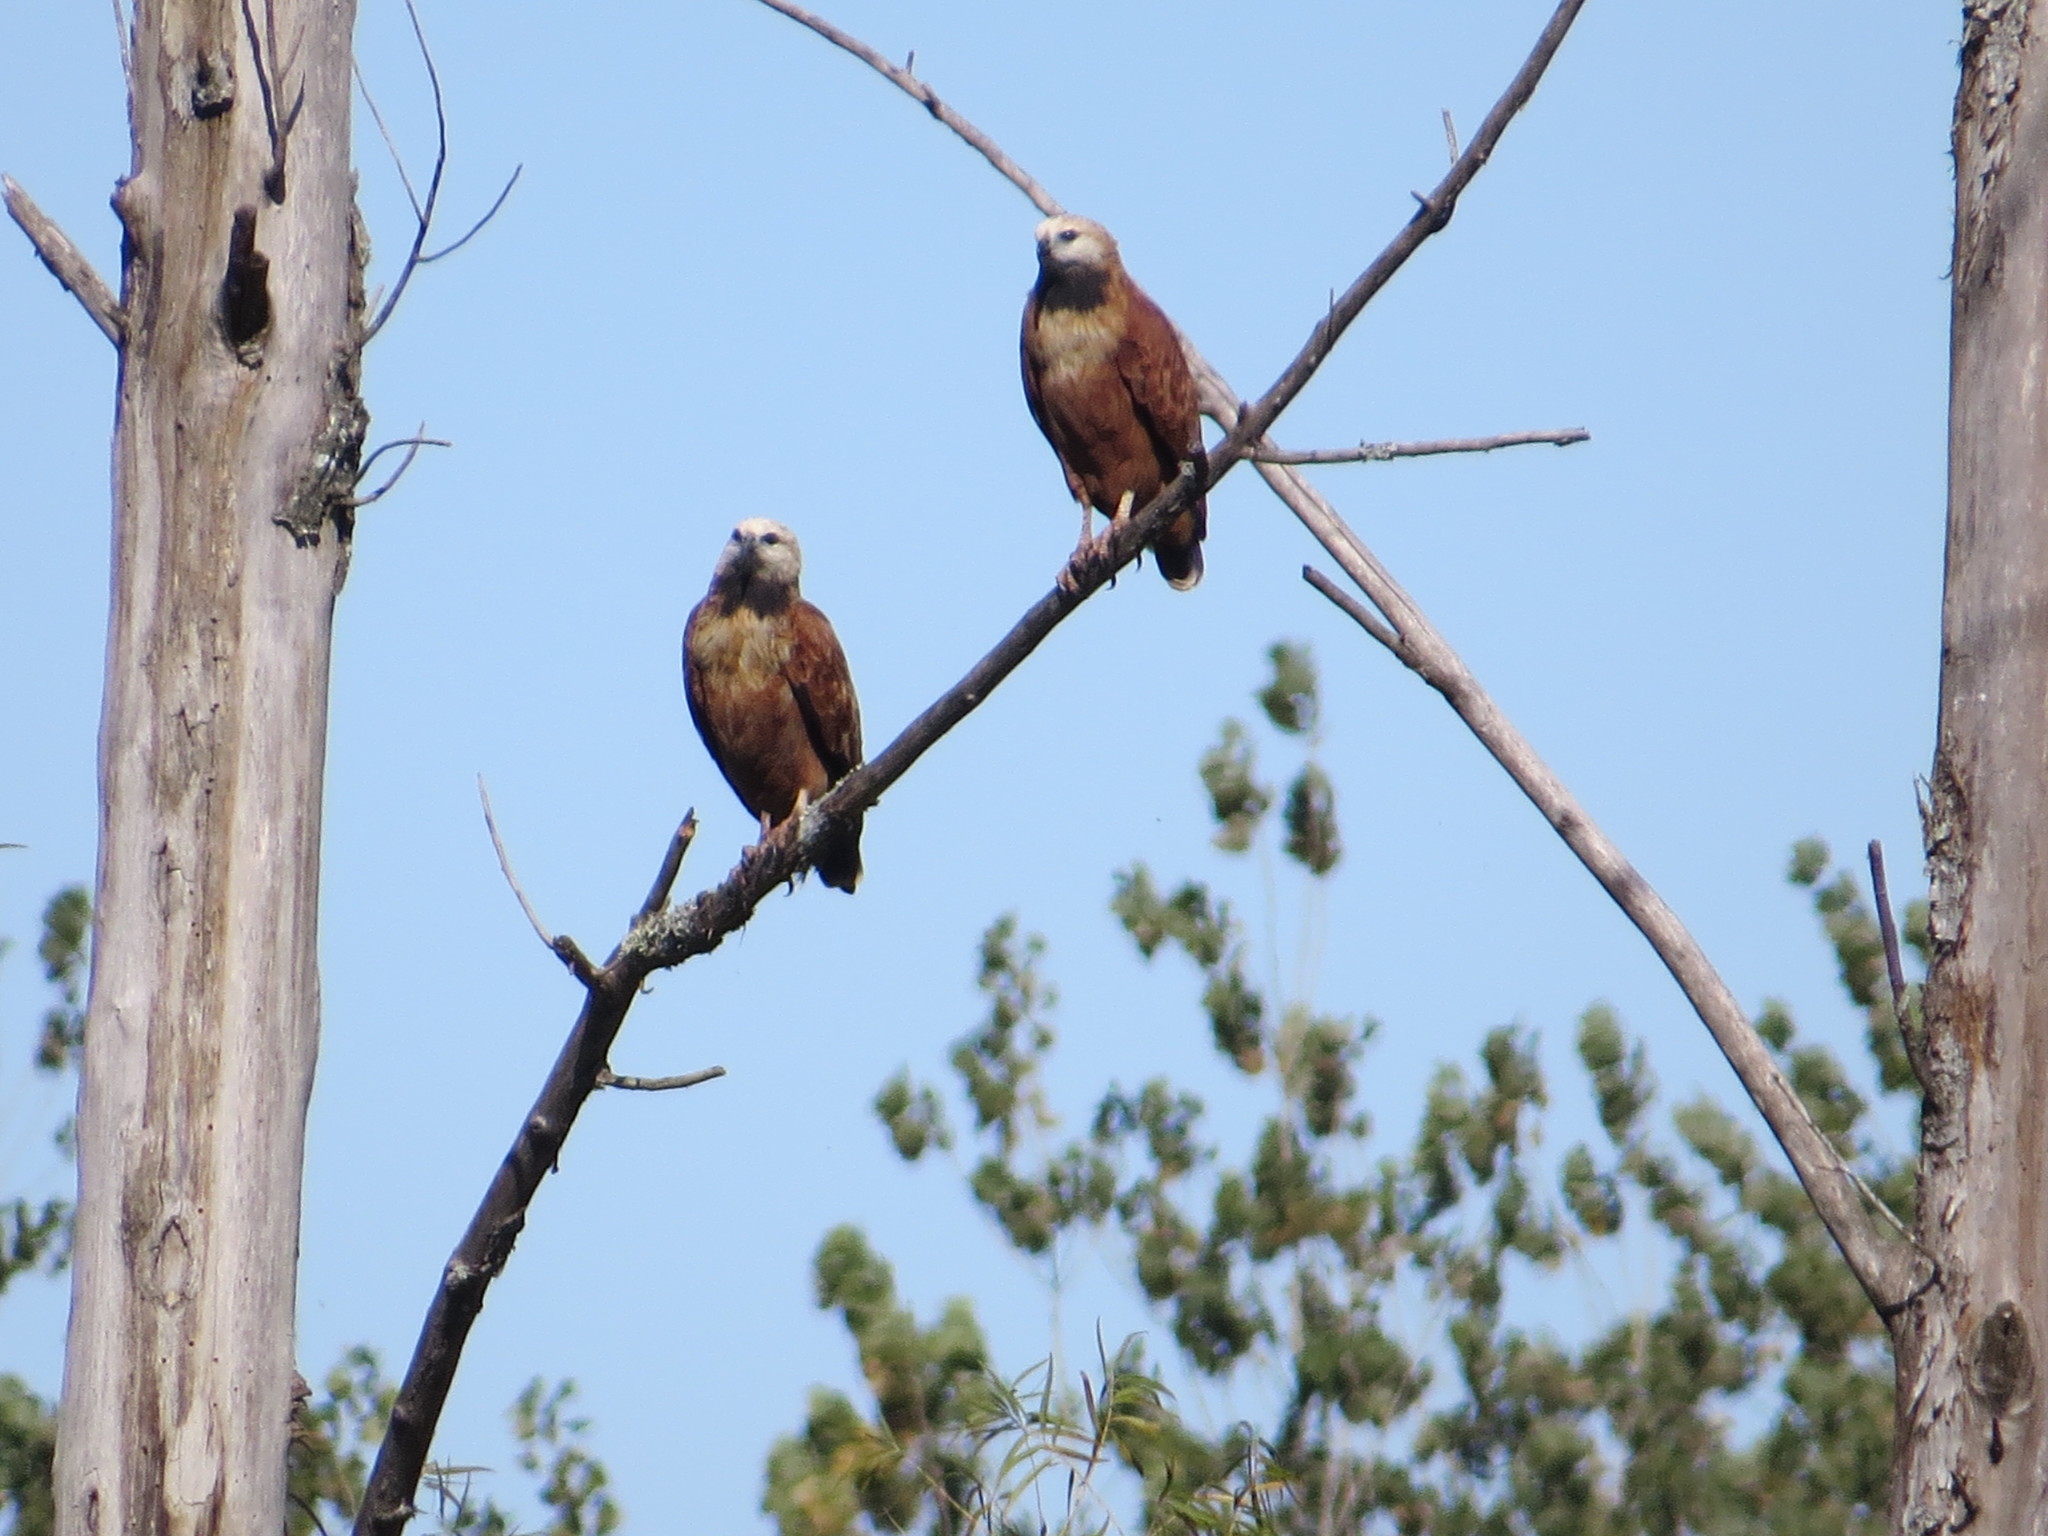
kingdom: Animalia
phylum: Chordata
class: Aves
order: Accipitriformes
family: Accipitridae
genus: Busarellus
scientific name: Busarellus nigricollis
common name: Black-collared hawk
